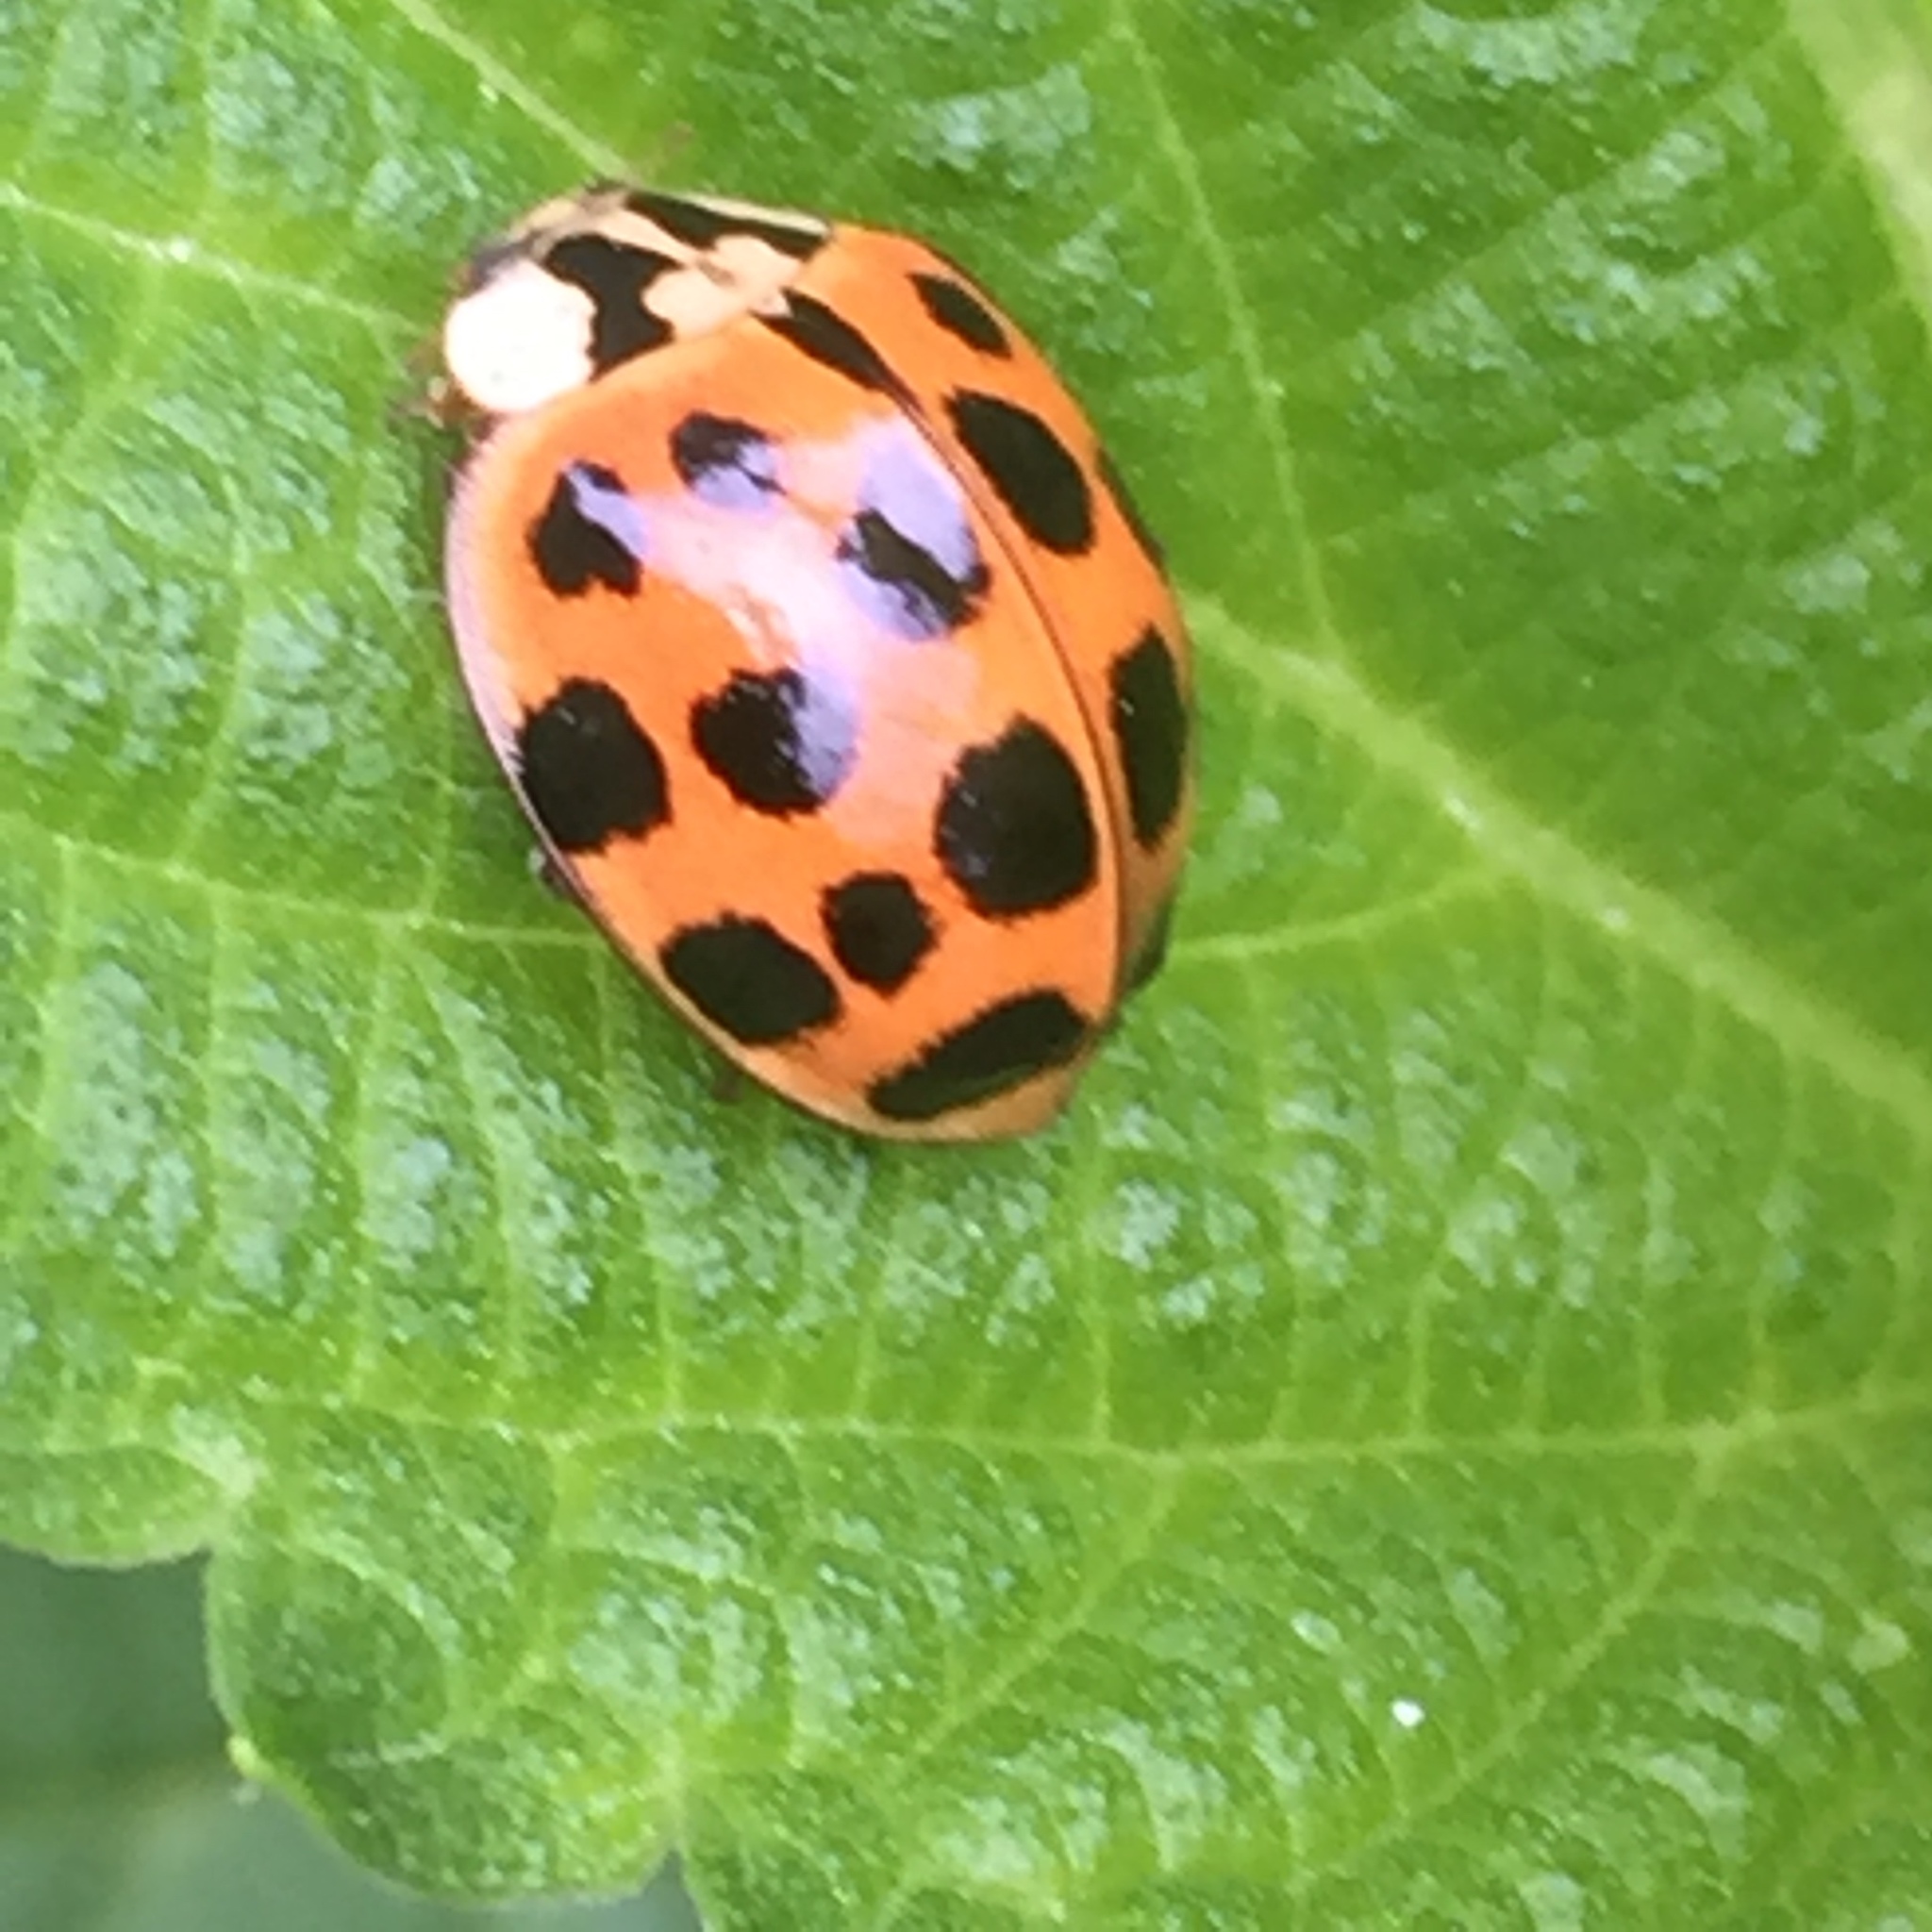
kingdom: Animalia
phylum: Arthropoda
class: Insecta
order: Coleoptera
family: Coccinellidae
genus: Harmonia
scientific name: Harmonia axyridis
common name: Harlequin ladybird
